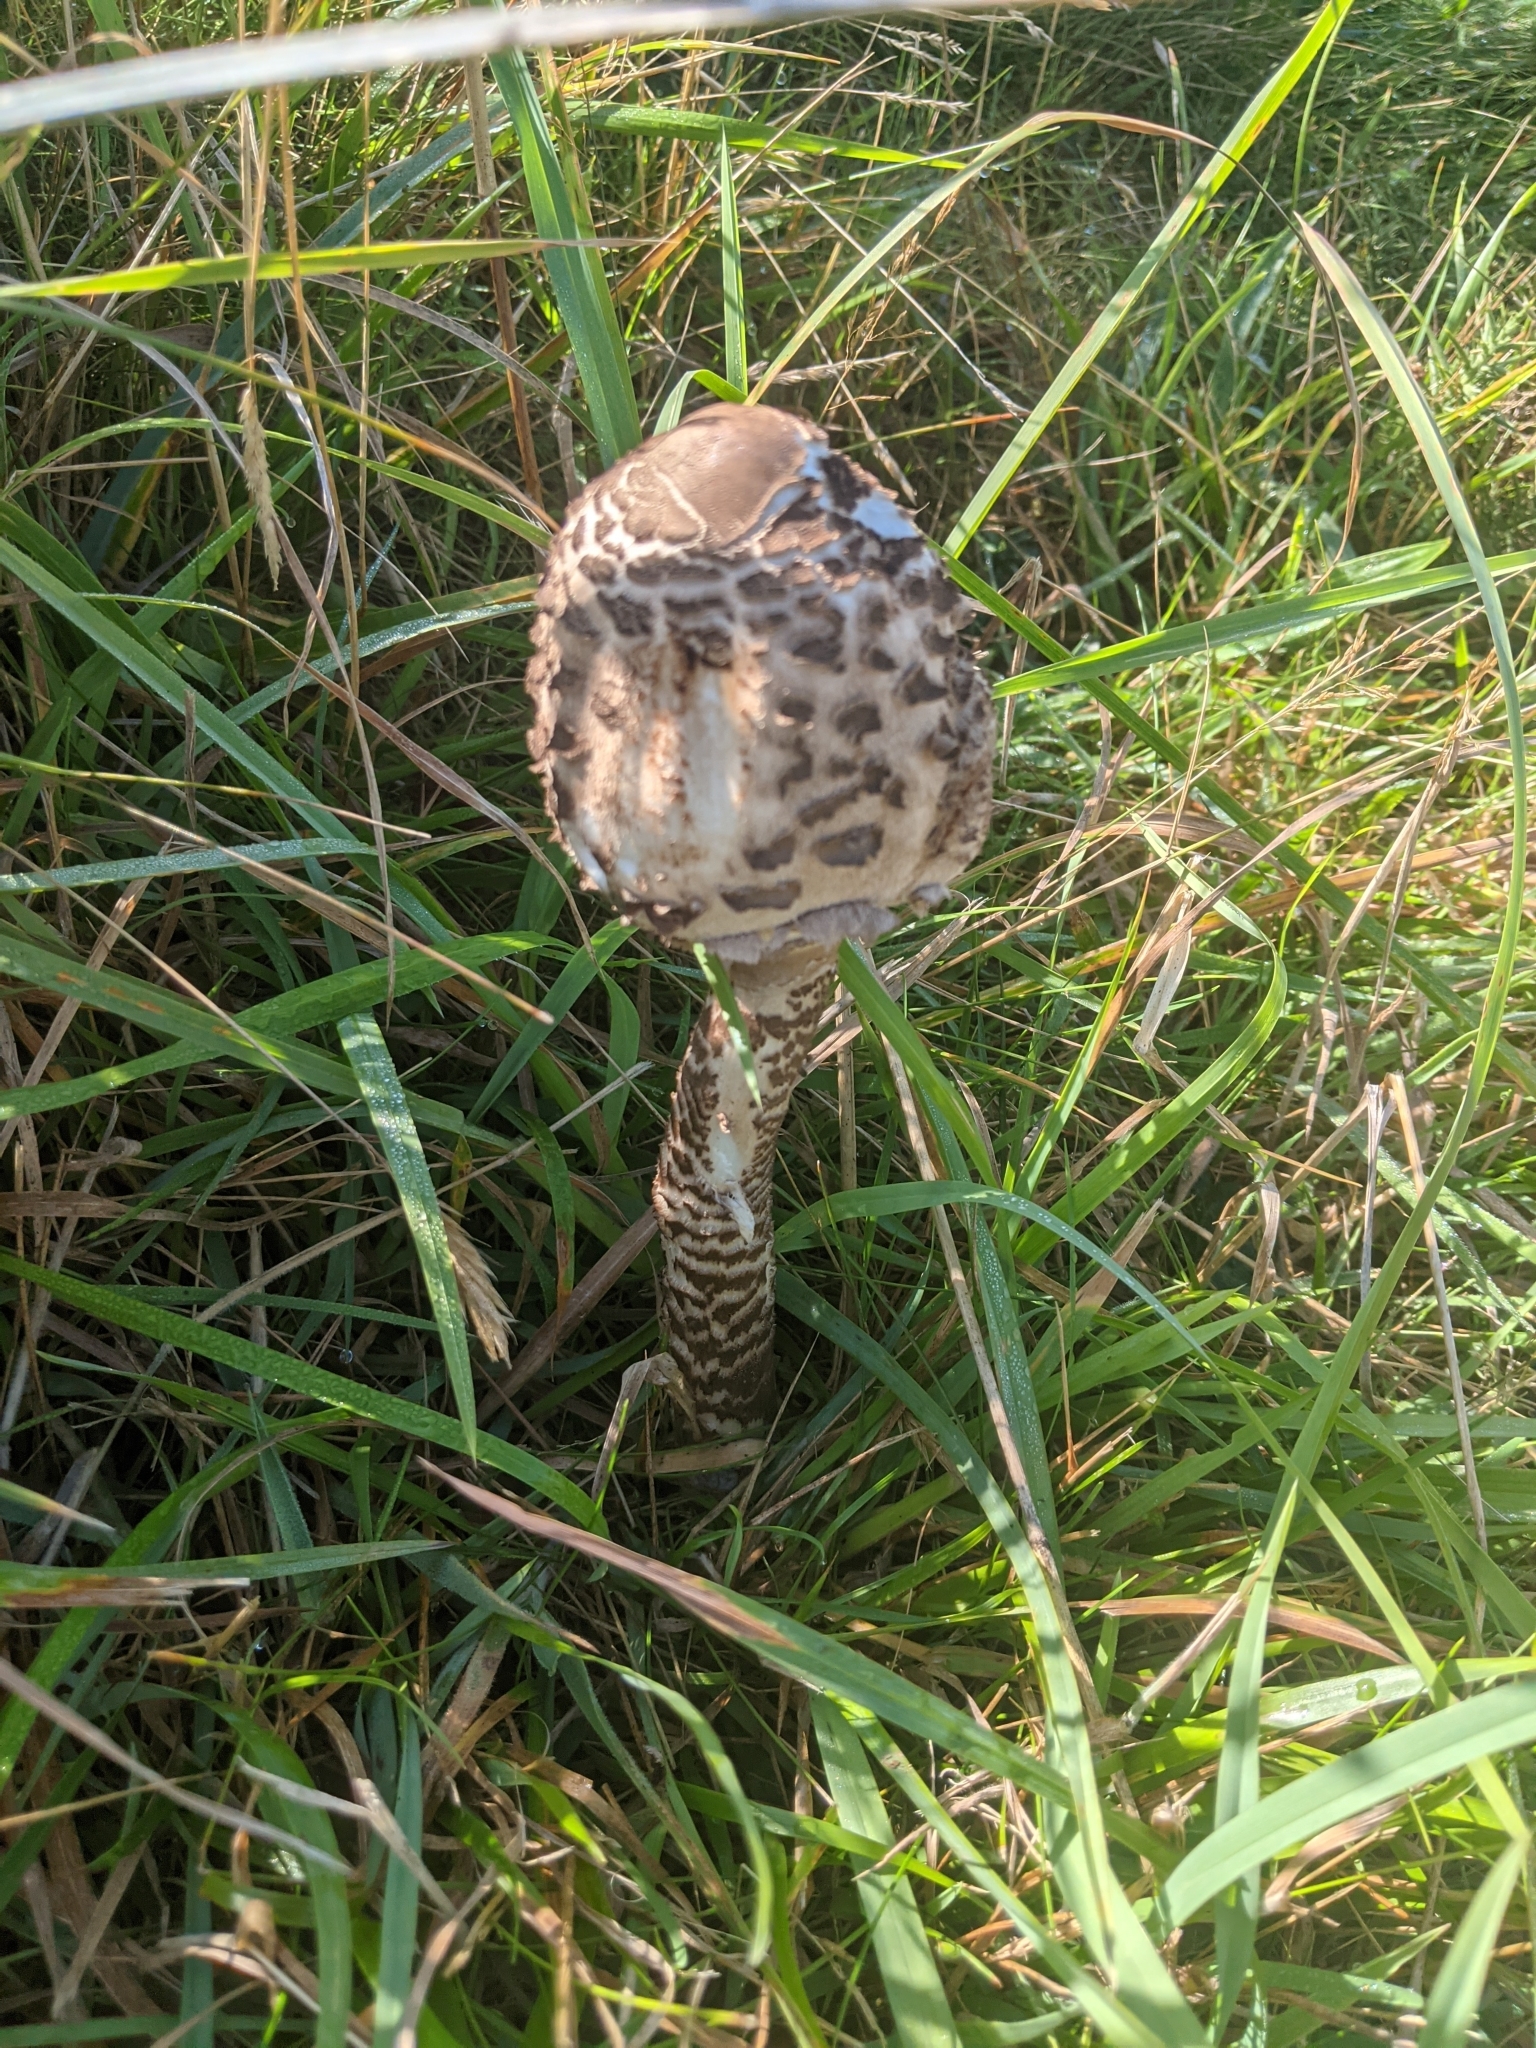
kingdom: Fungi
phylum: Basidiomycota
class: Agaricomycetes
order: Agaricales
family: Agaricaceae
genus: Macrolepiota
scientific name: Macrolepiota procera
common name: Parasol
